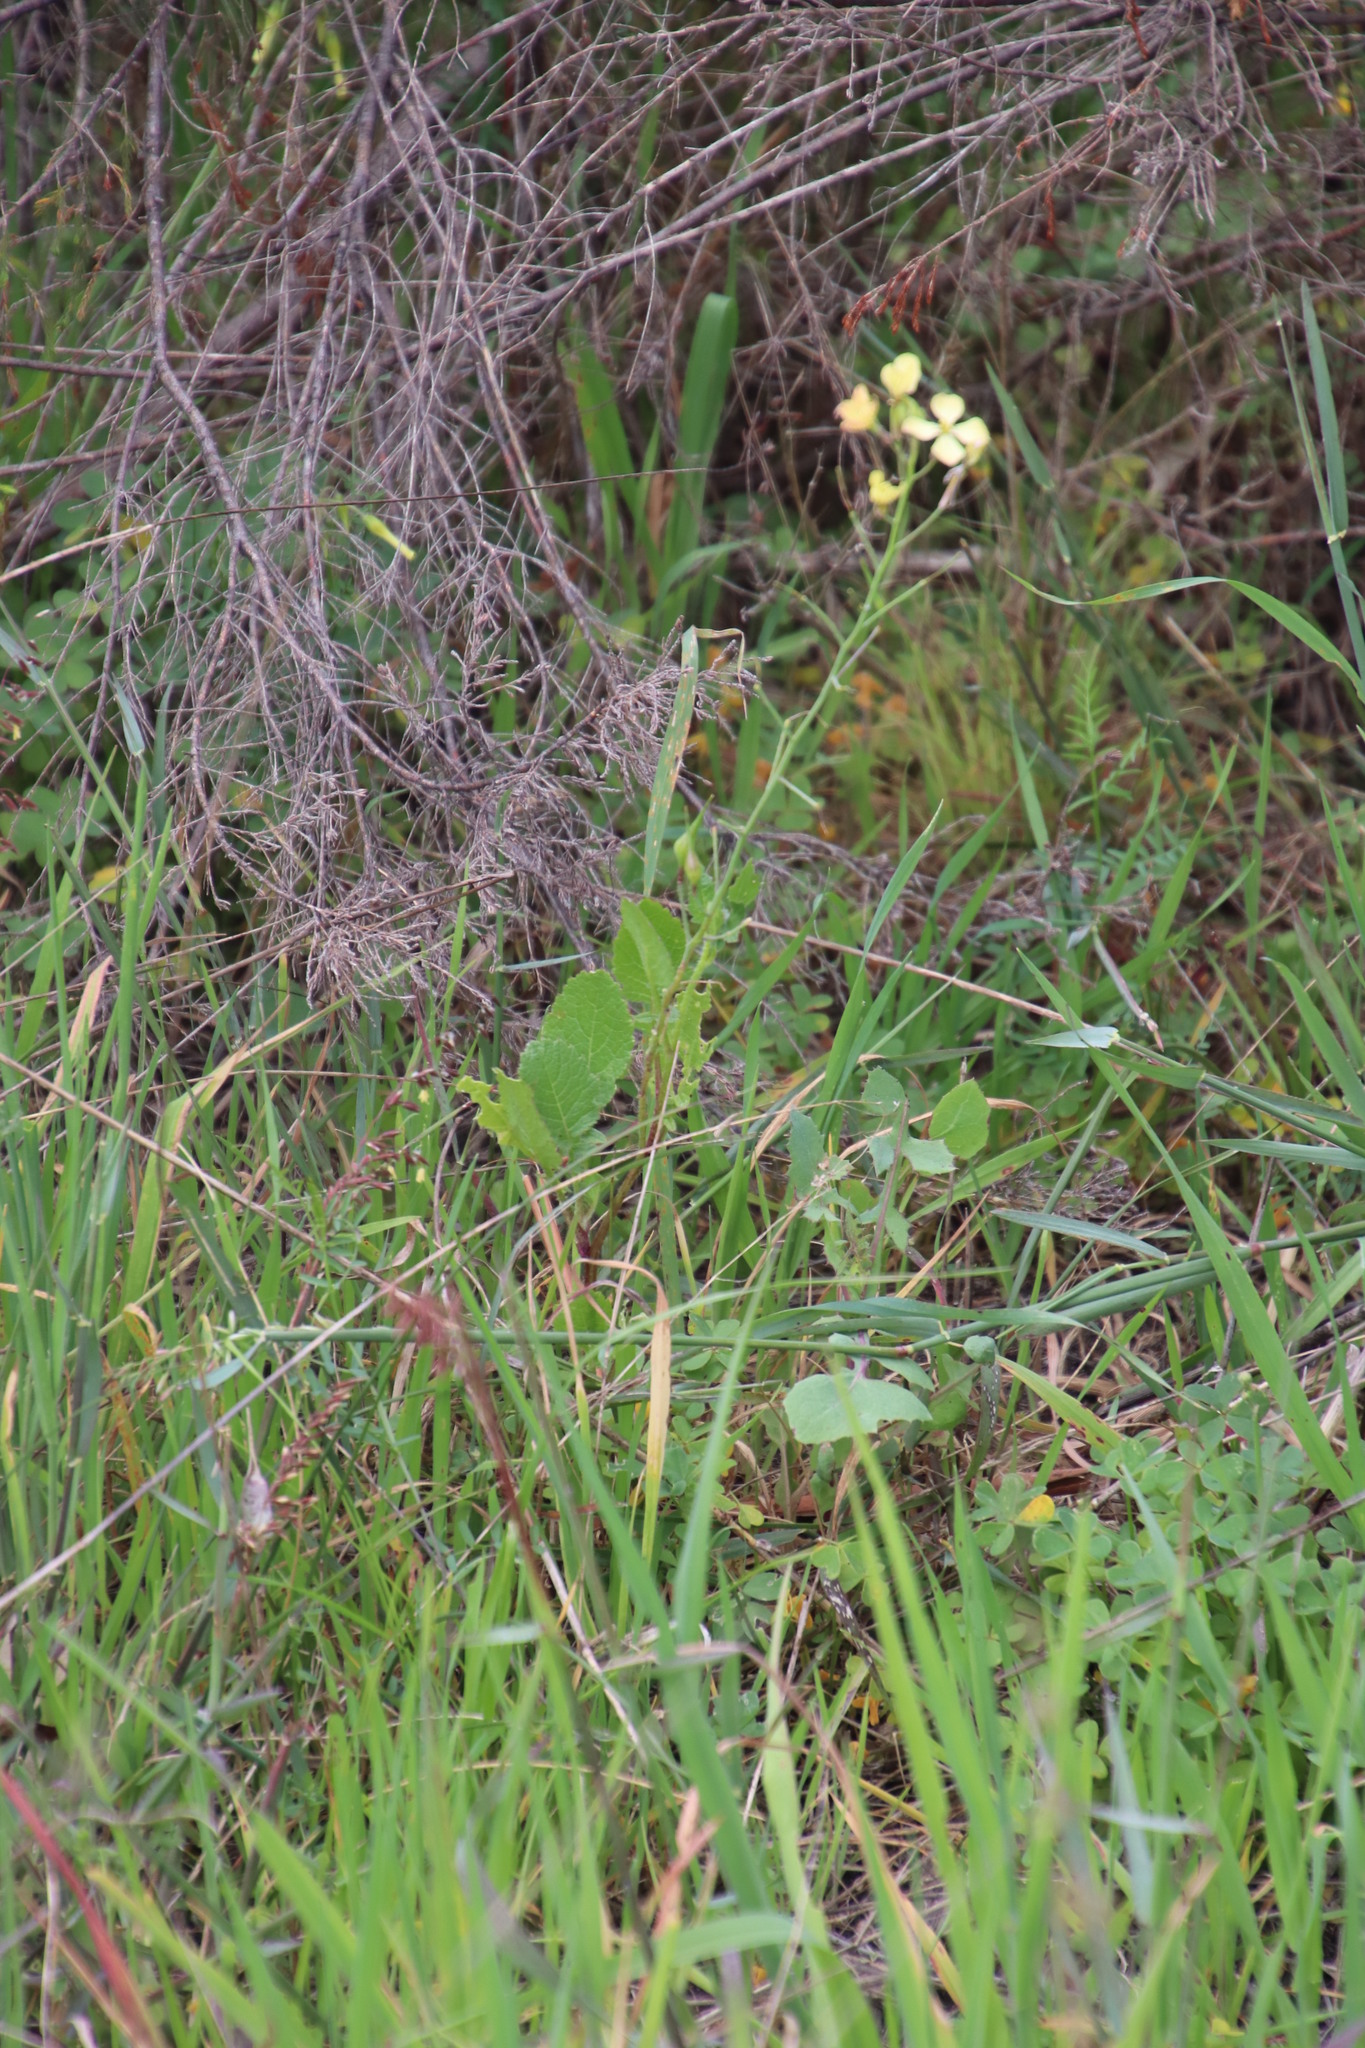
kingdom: Plantae
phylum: Tracheophyta
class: Magnoliopsida
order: Brassicales
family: Brassicaceae
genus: Raphanus
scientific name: Raphanus raphanistrum
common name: Wild radish
